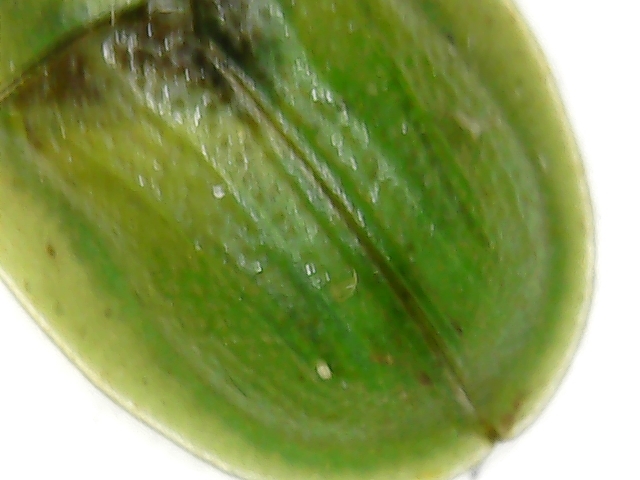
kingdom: Animalia
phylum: Arthropoda
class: Insecta
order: Coleoptera
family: Chrysomelidae
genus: Cassida
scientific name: Cassida denticollis
